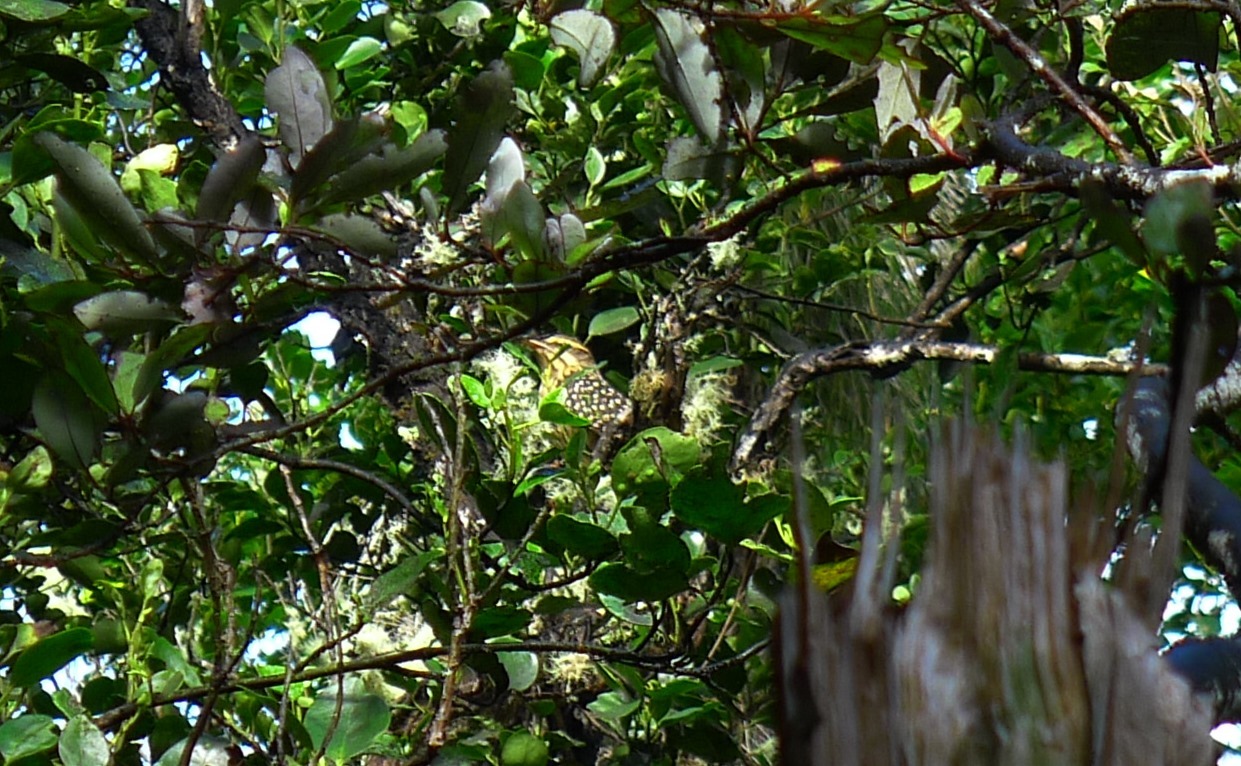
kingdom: Animalia
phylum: Chordata
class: Aves
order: Cuculiformes
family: Cuculidae
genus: Urodynamis
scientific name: Urodynamis taitensis
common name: Long-tailed koel
